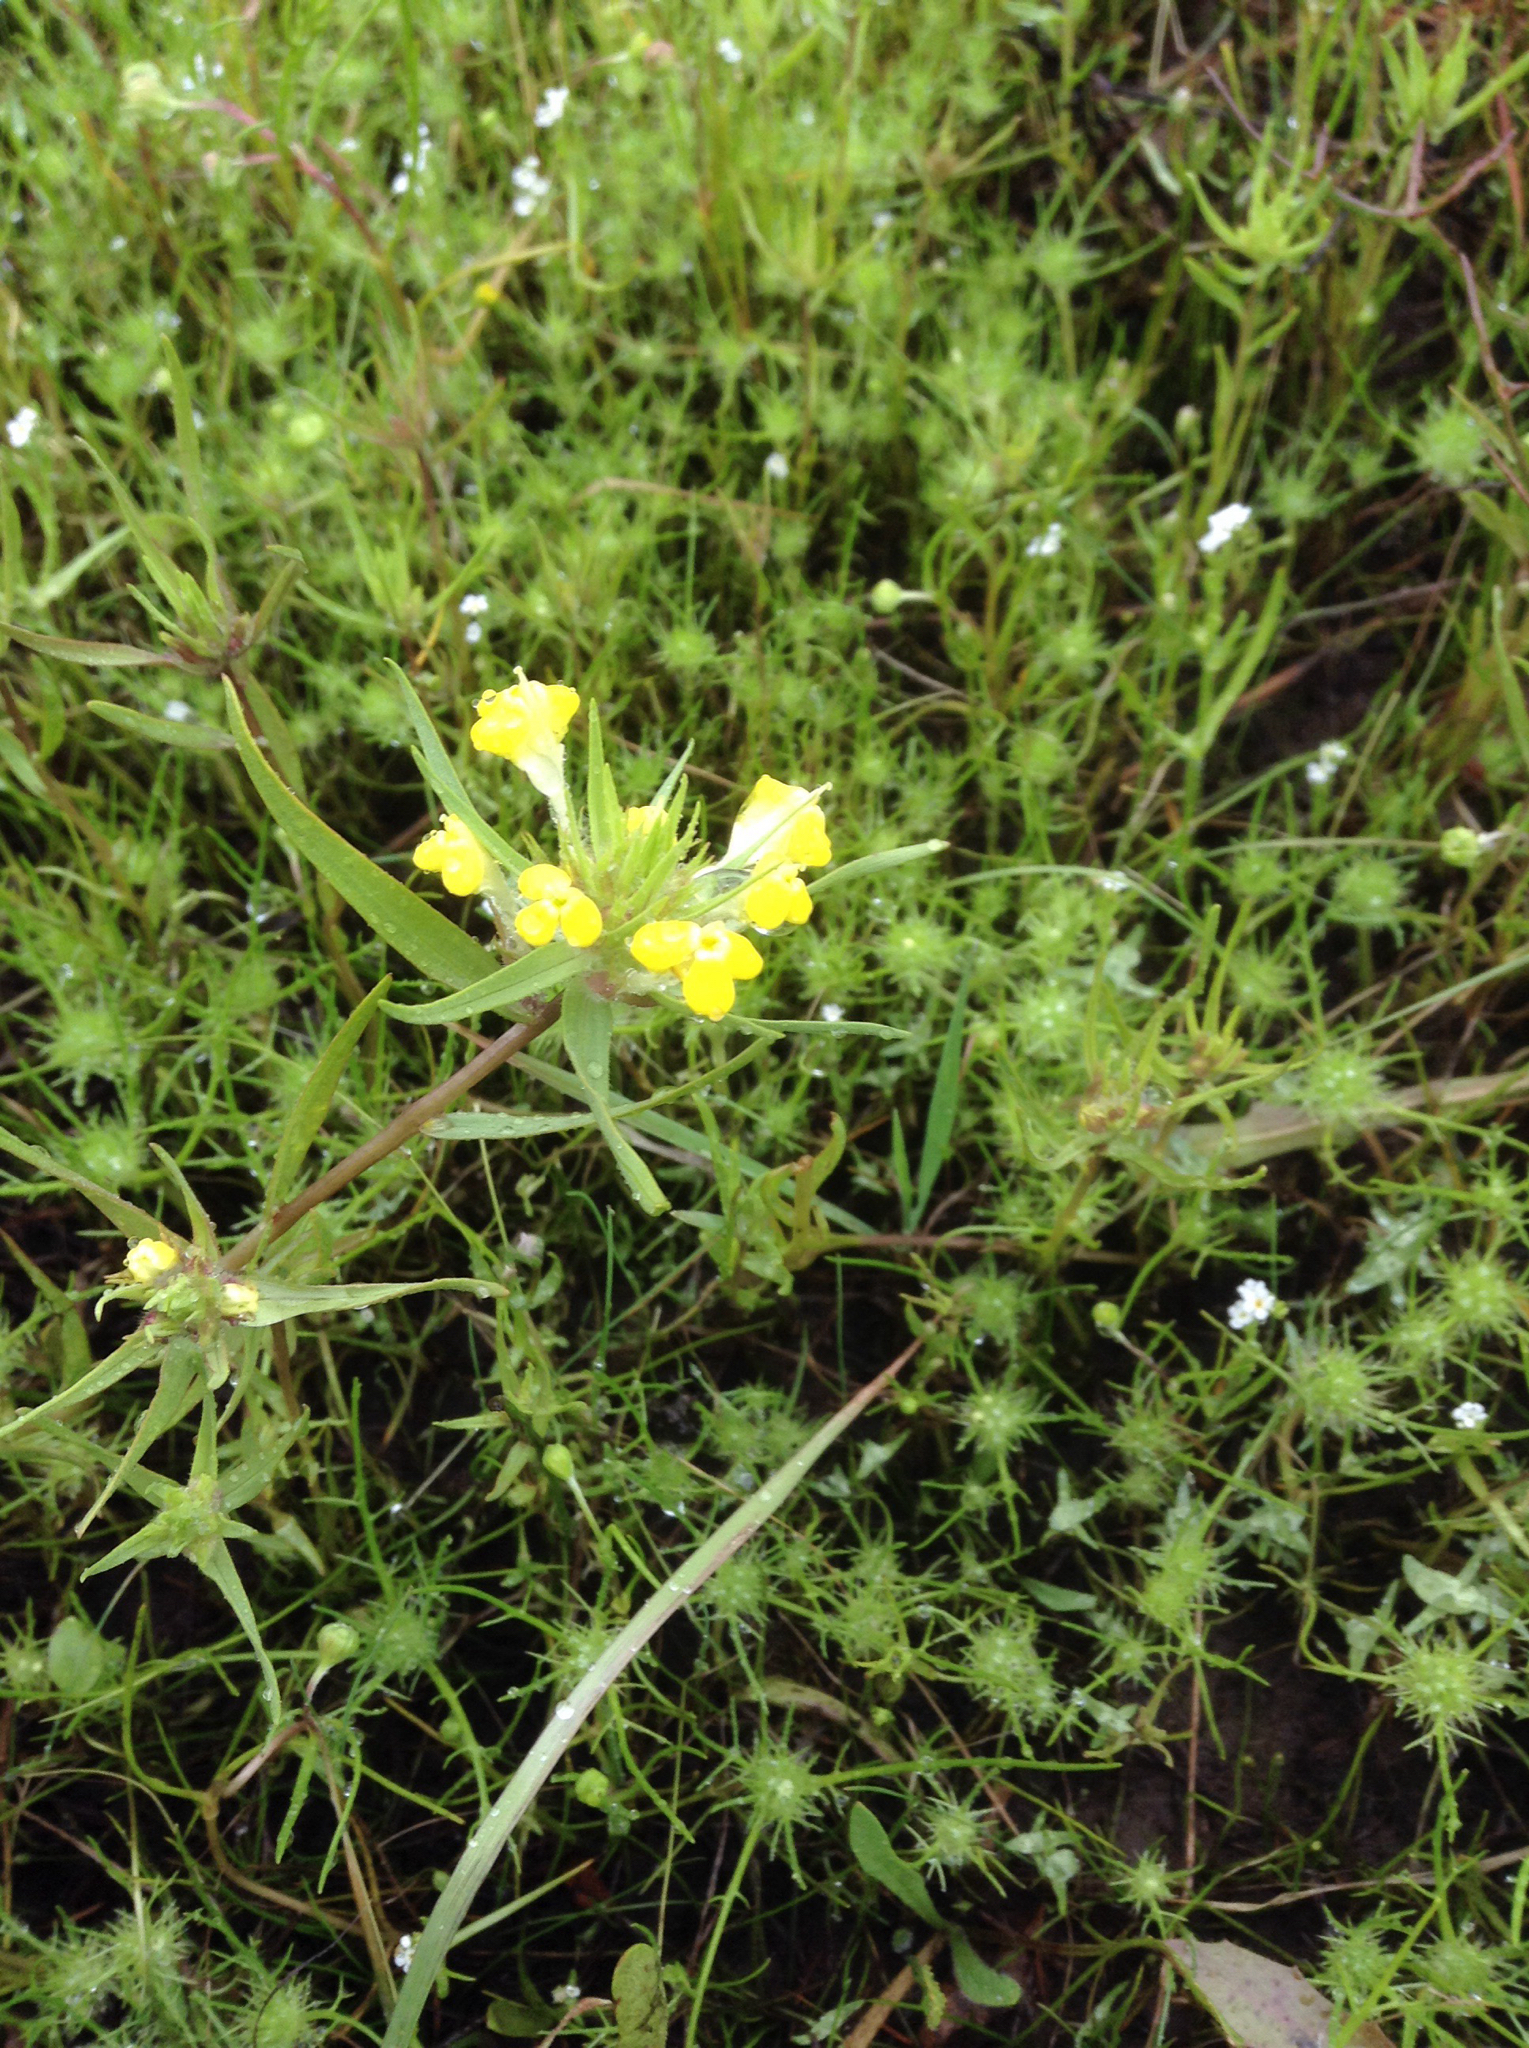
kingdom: Plantae
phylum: Tracheophyta
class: Magnoliopsida
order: Lamiales
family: Orobanchaceae
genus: Castilleja
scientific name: Castilleja campestris
